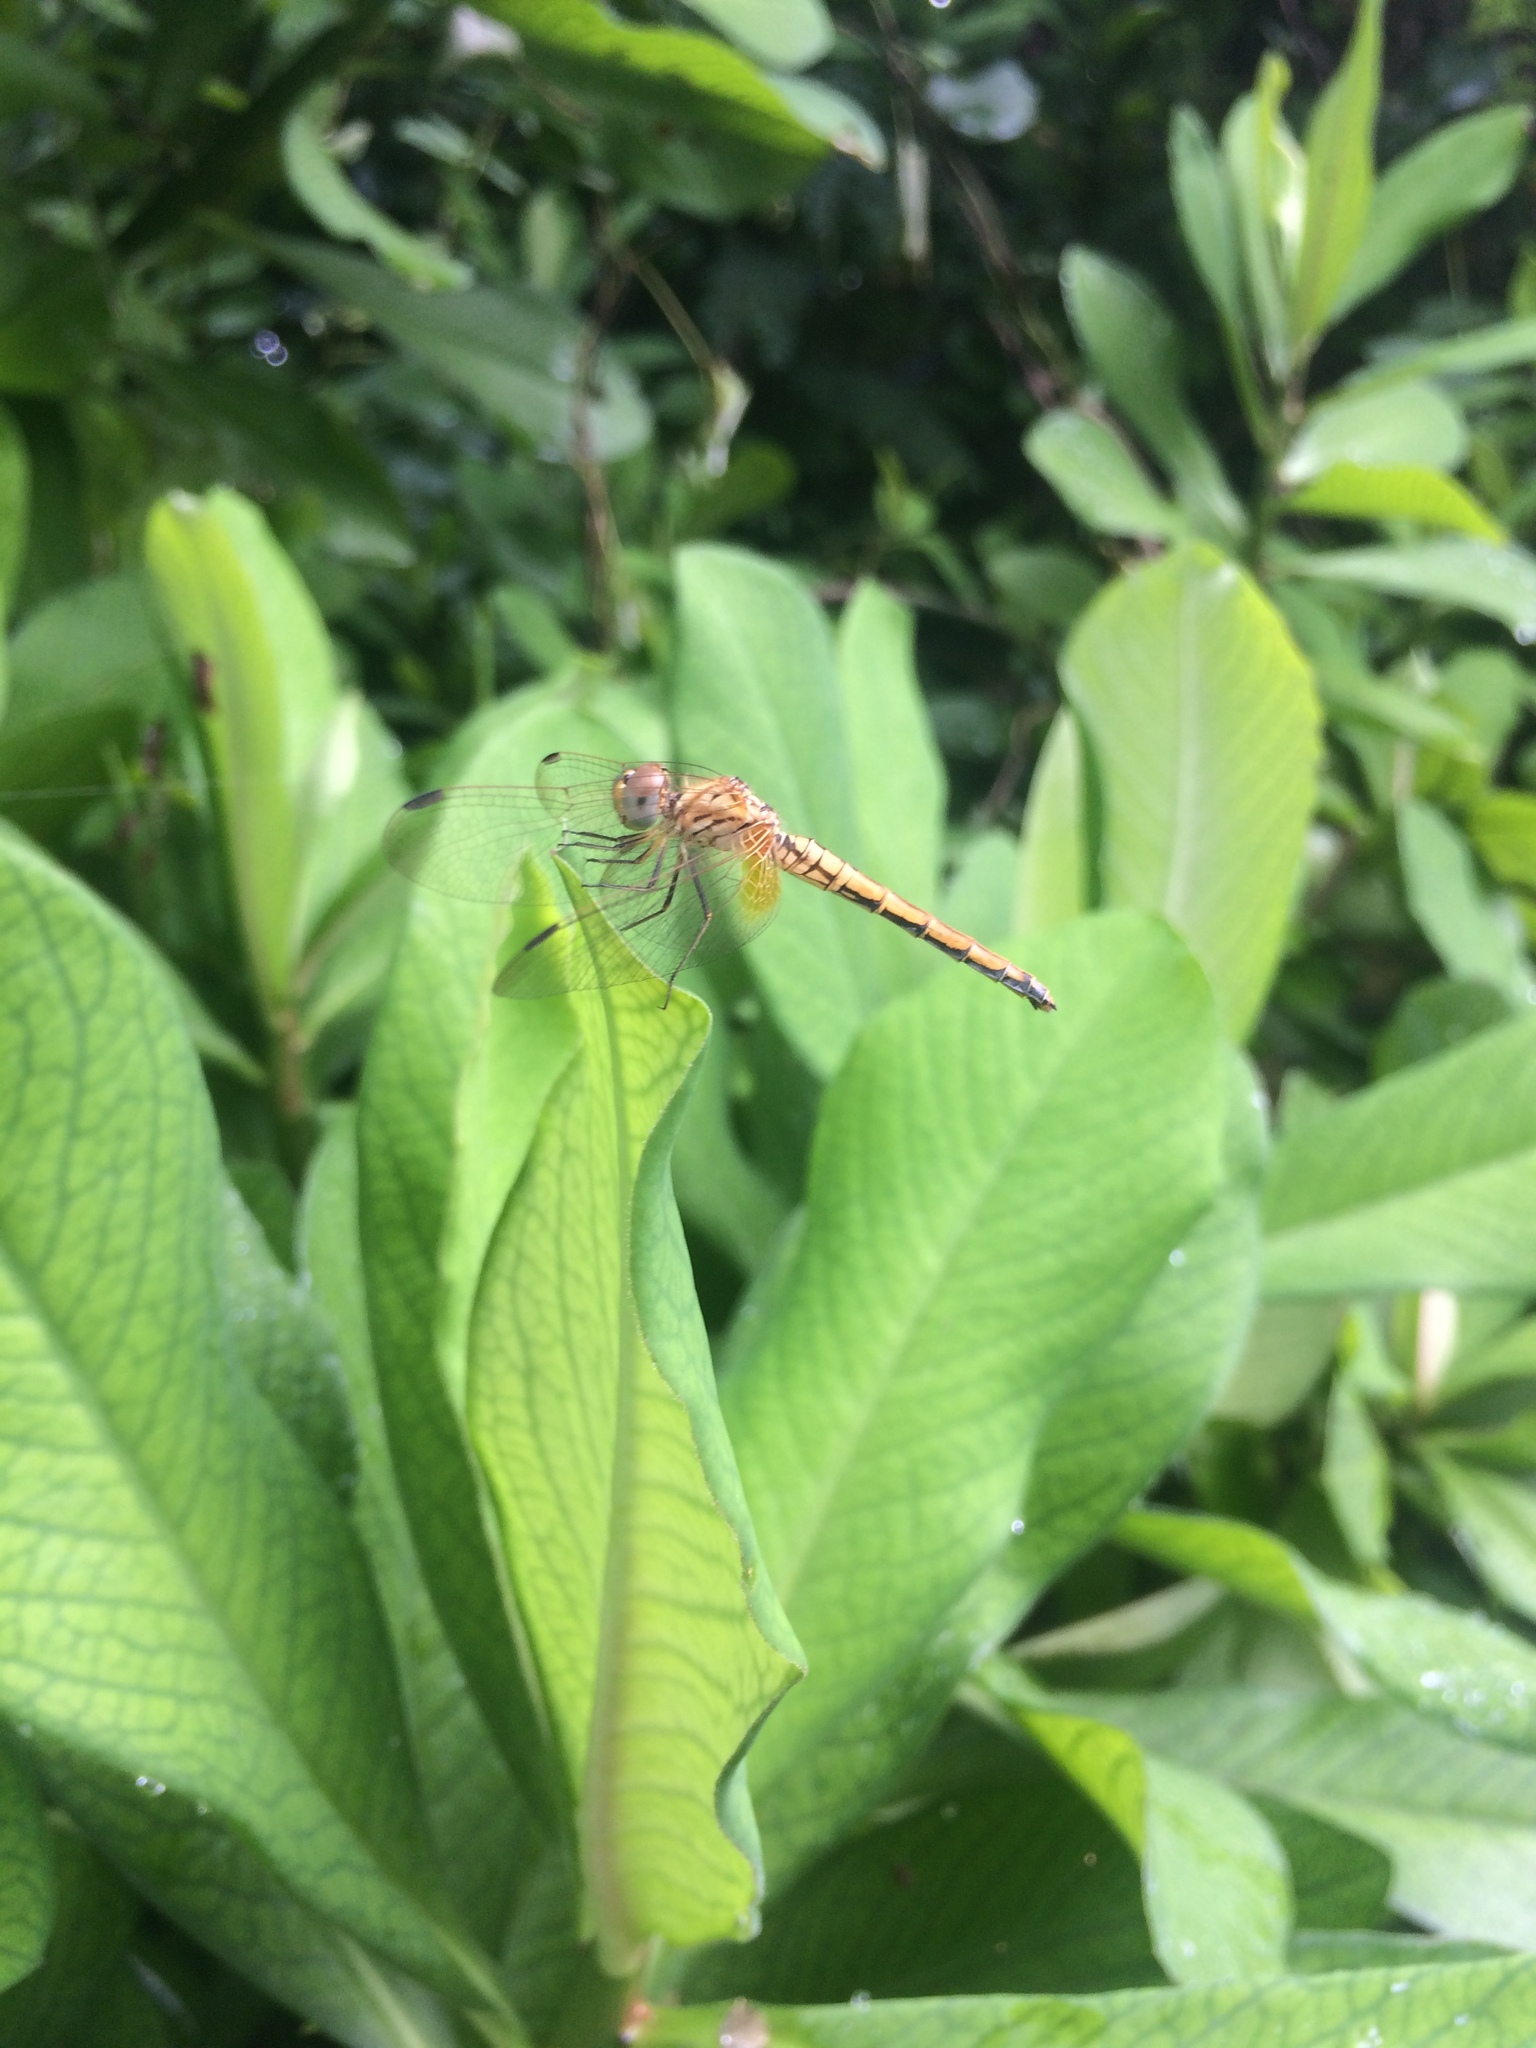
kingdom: Animalia
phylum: Arthropoda
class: Insecta
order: Odonata
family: Libellulidae
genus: Trithemis
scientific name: Trithemis aurora
